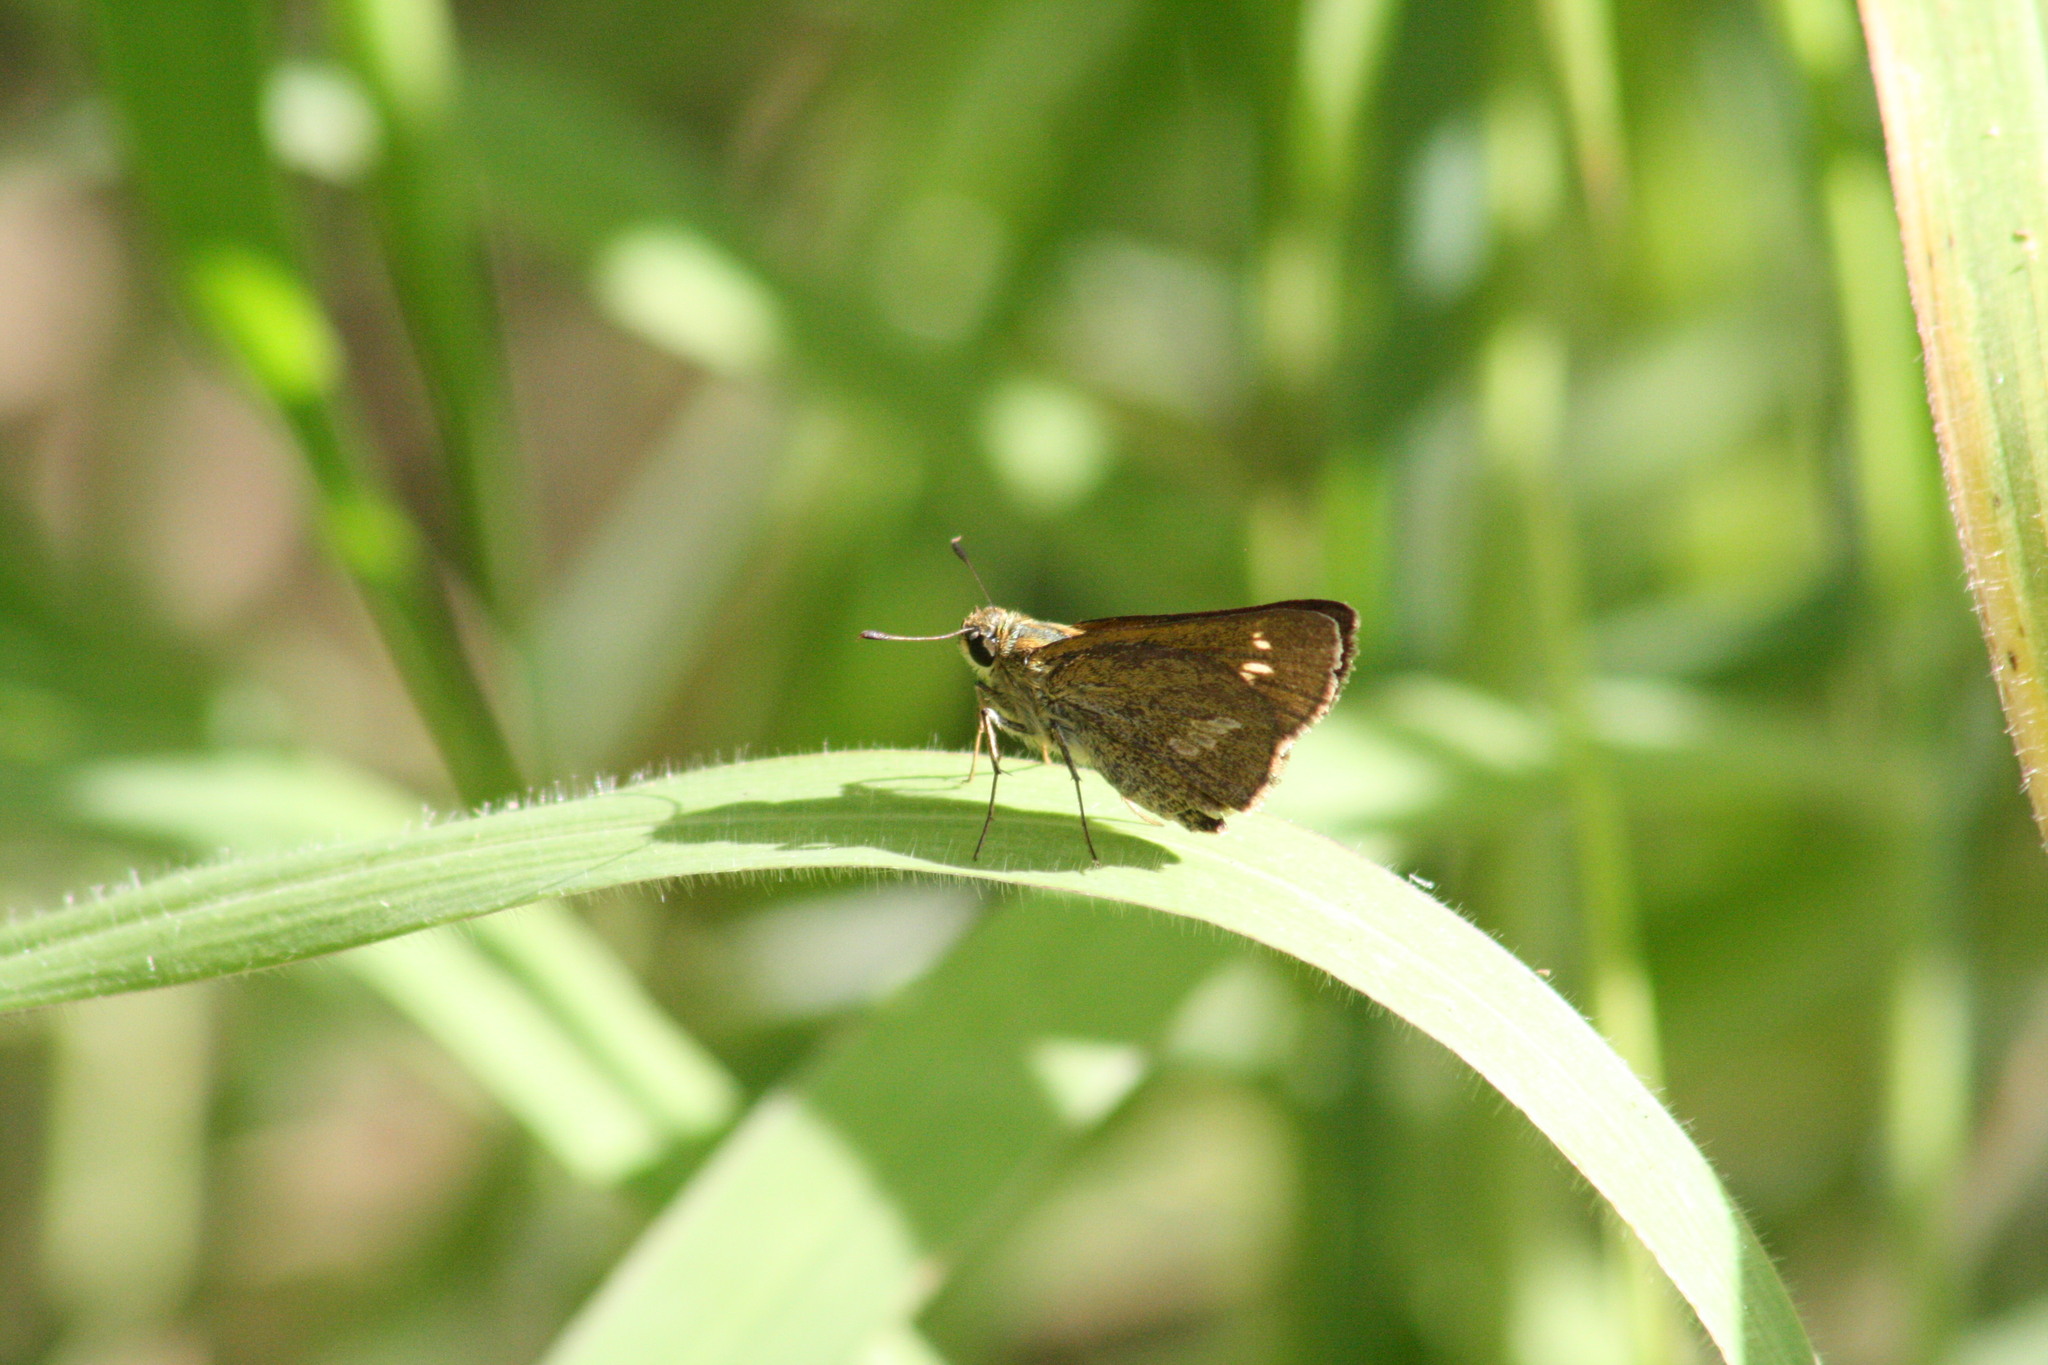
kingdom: Animalia
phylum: Arthropoda
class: Insecta
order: Lepidoptera
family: Hesperiidae
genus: Parnara
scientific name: Parnara amalia
